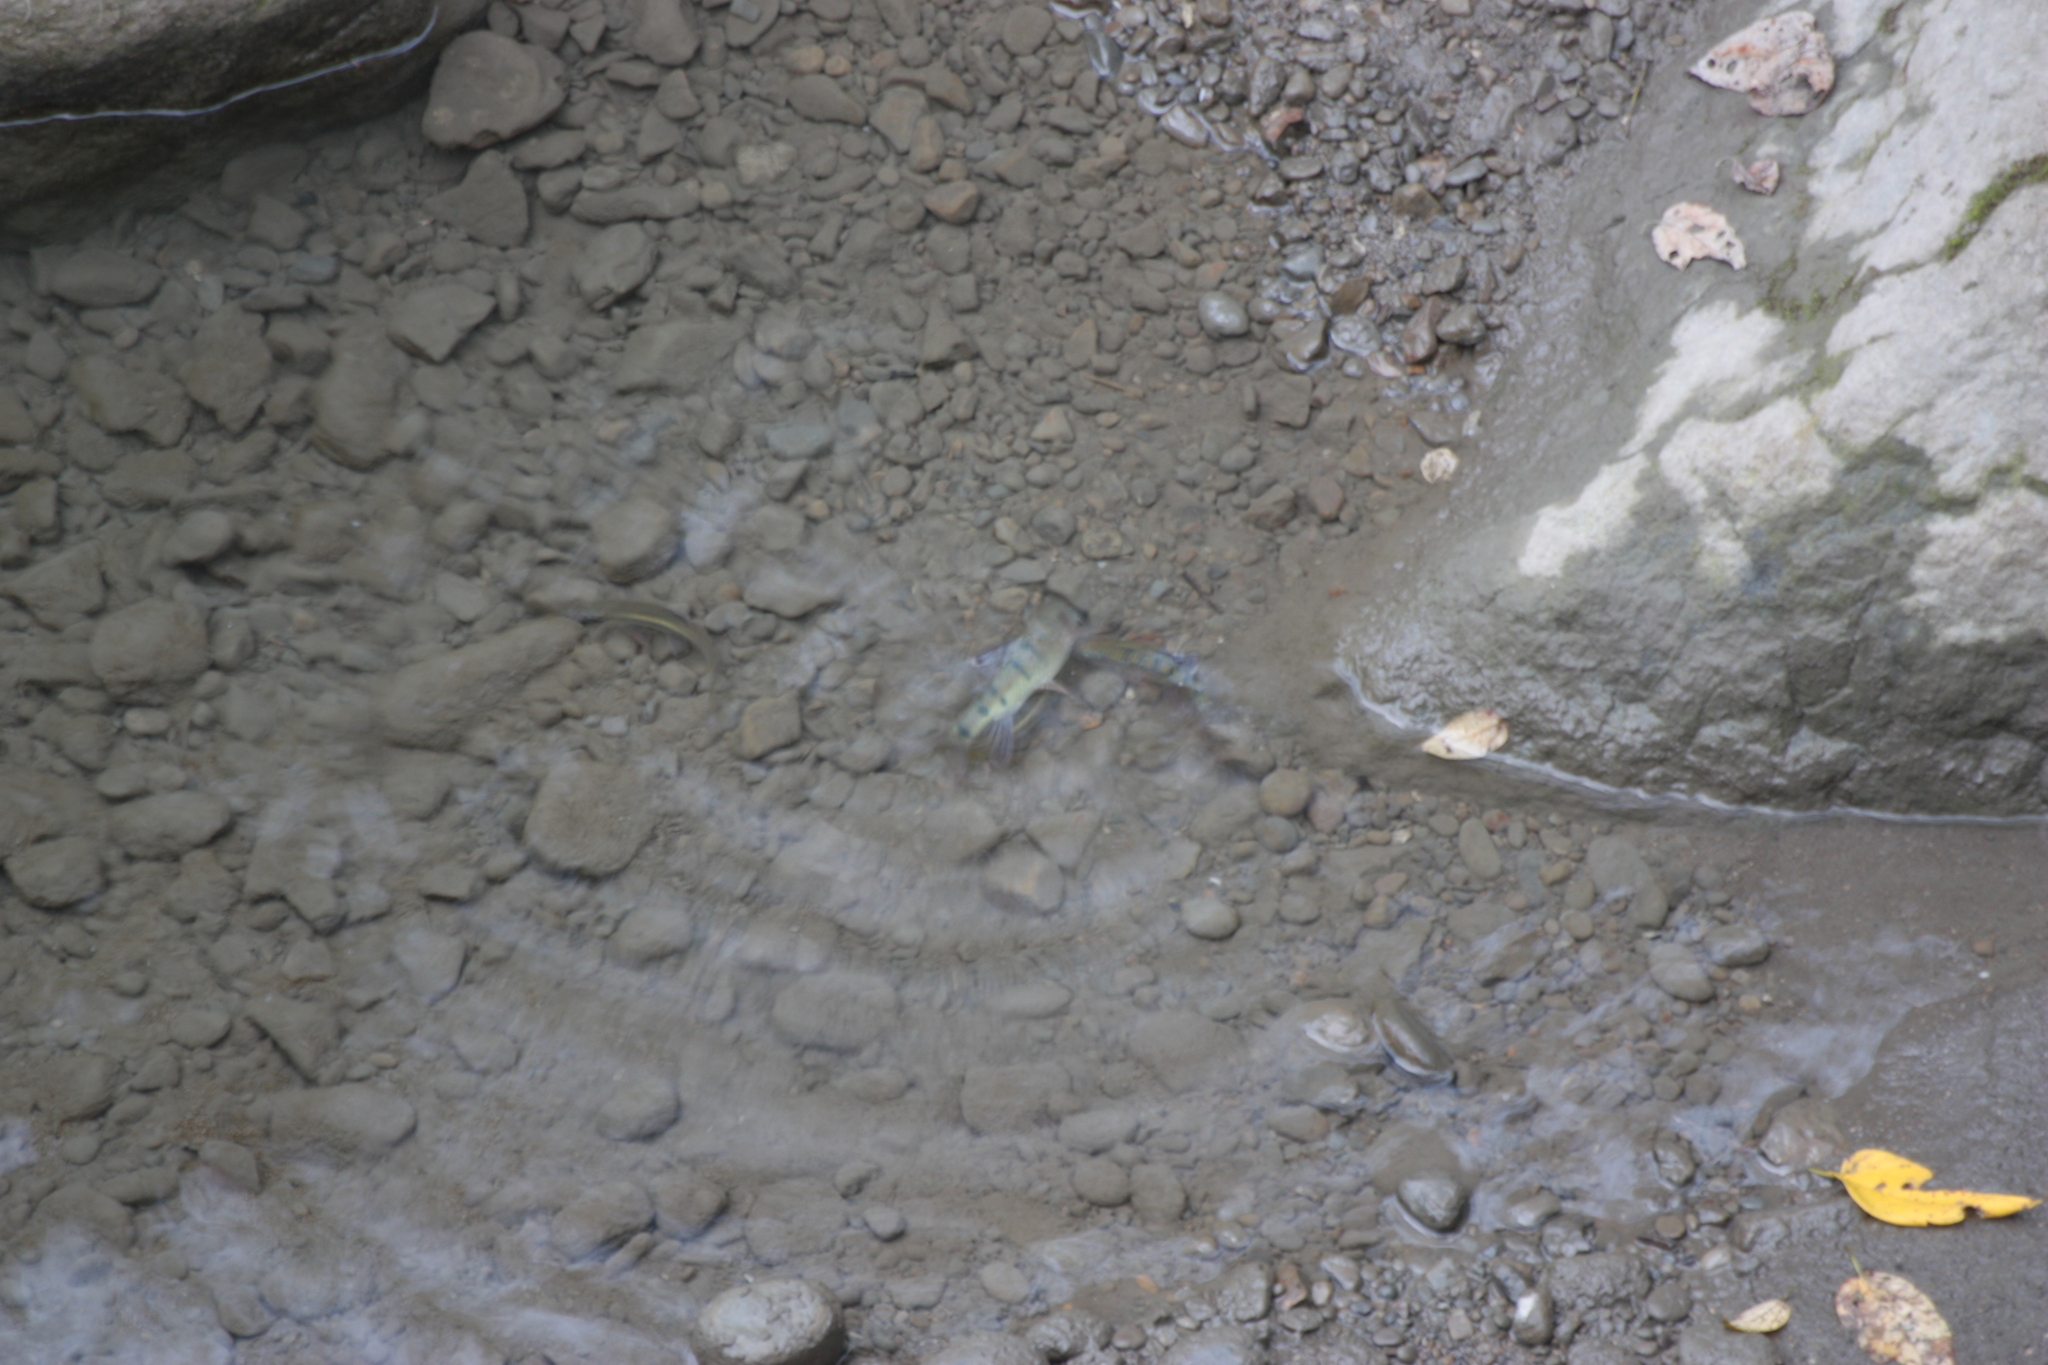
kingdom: Animalia
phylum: Chordata
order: Cypriniformes
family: Cyprinidae
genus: Acrossocheilus
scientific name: Acrossocheilus paradoxus
